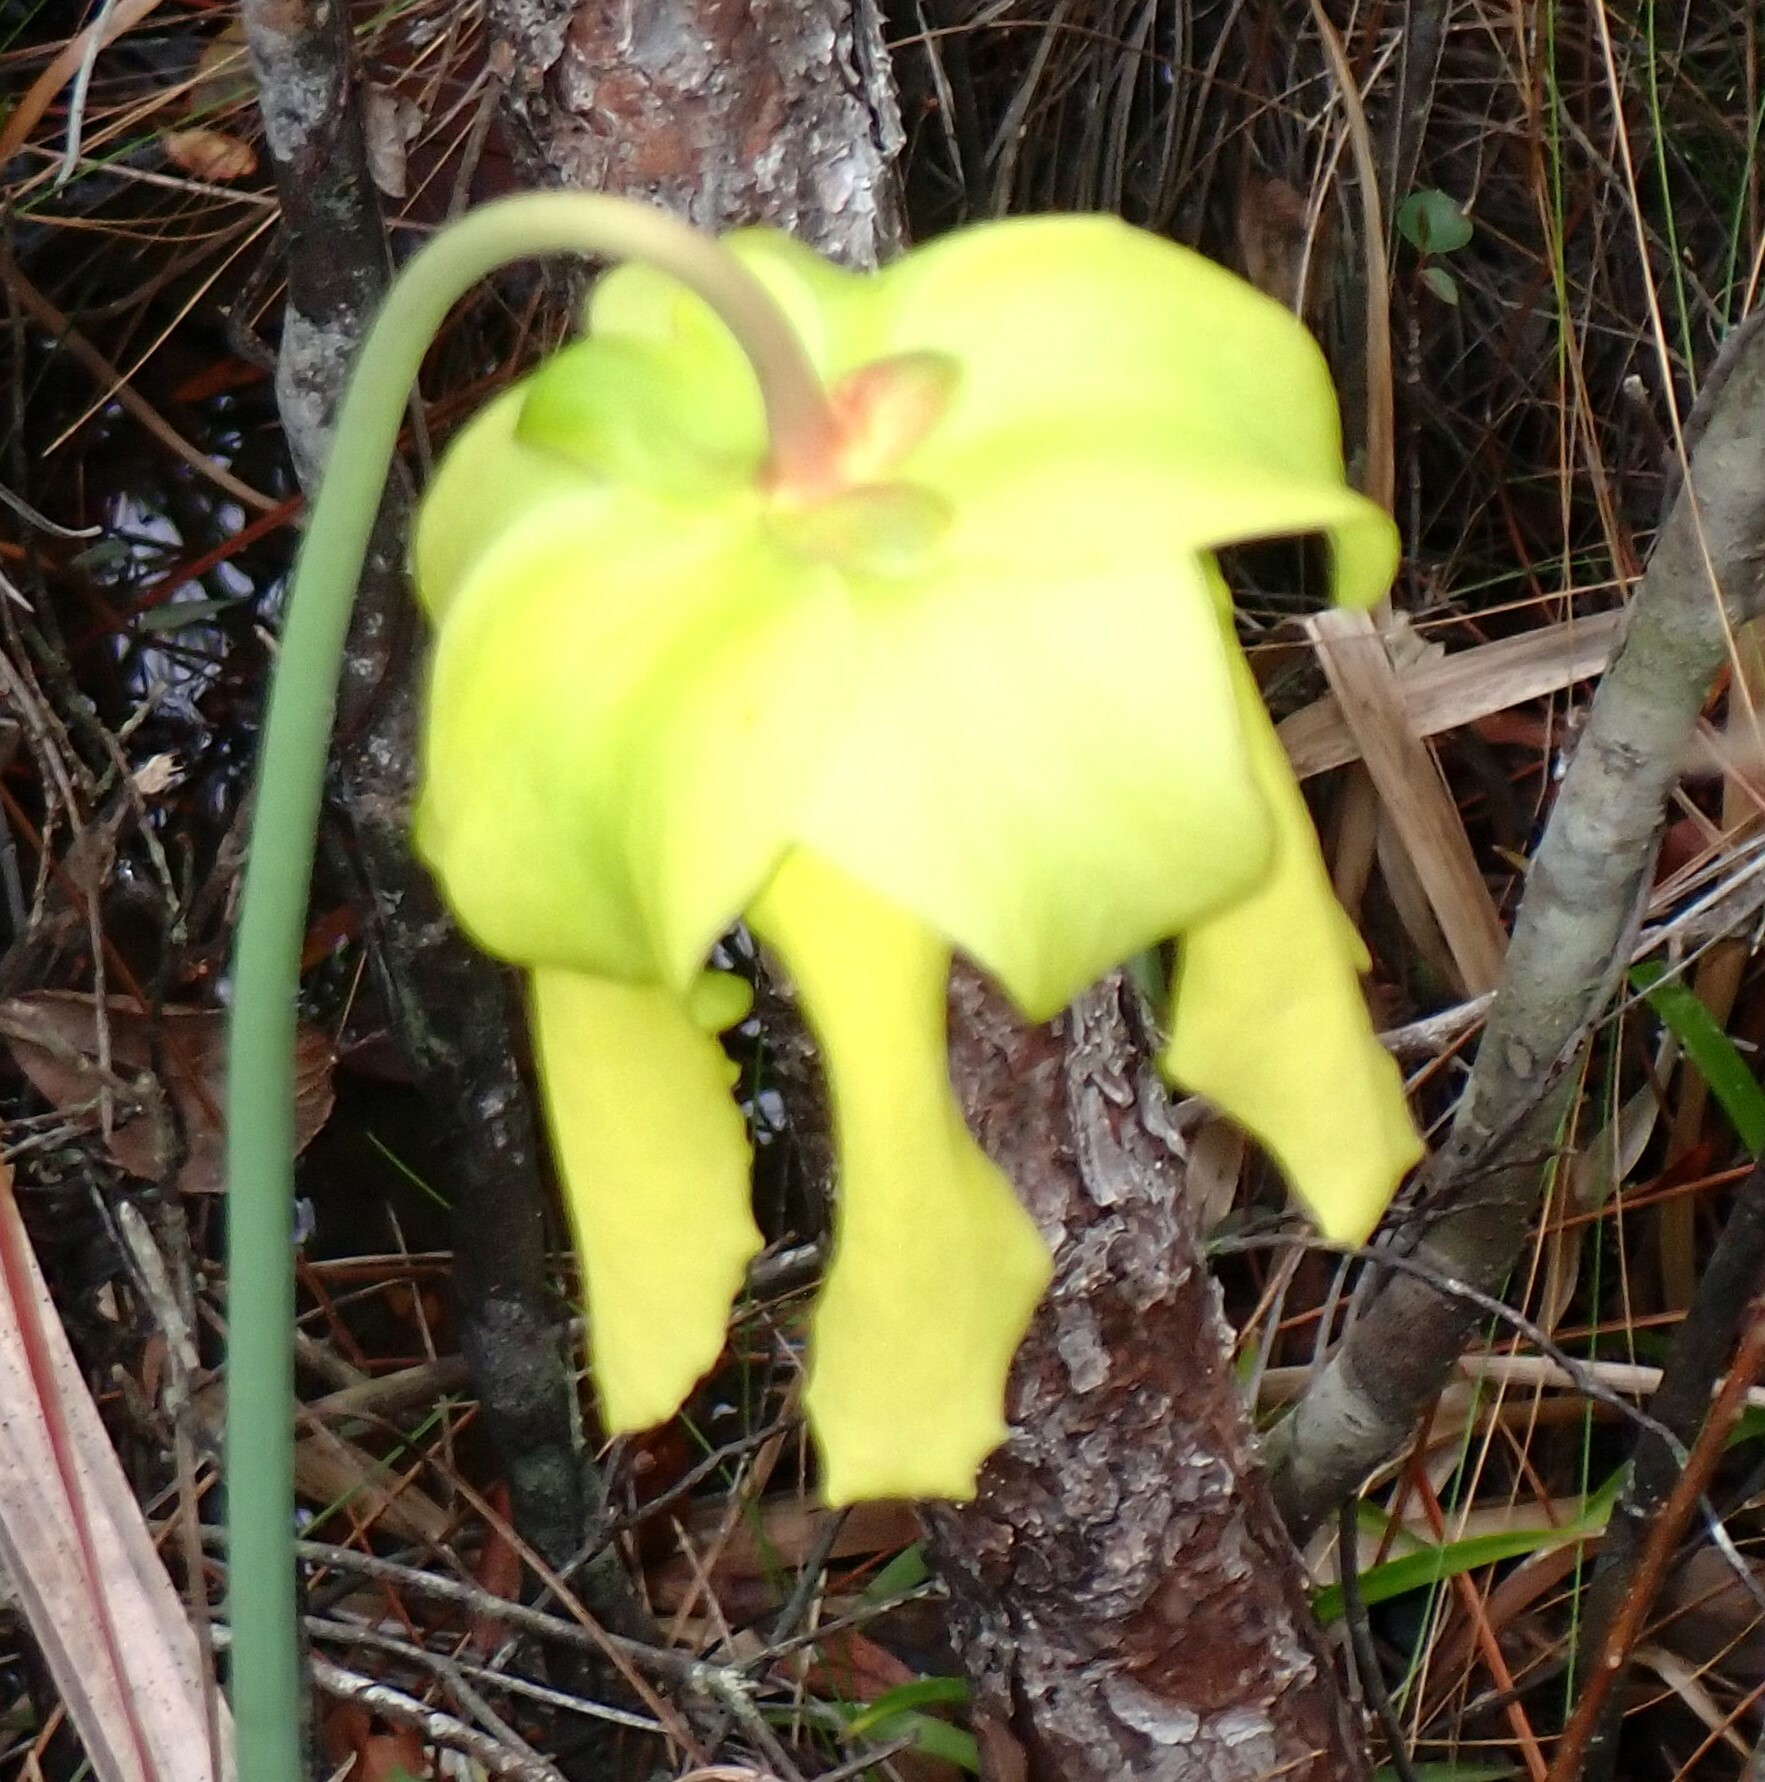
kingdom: Plantae
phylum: Tracheophyta
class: Magnoliopsida
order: Ericales
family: Sarraceniaceae
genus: Sarracenia
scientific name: Sarracenia flava
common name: Trumpets
